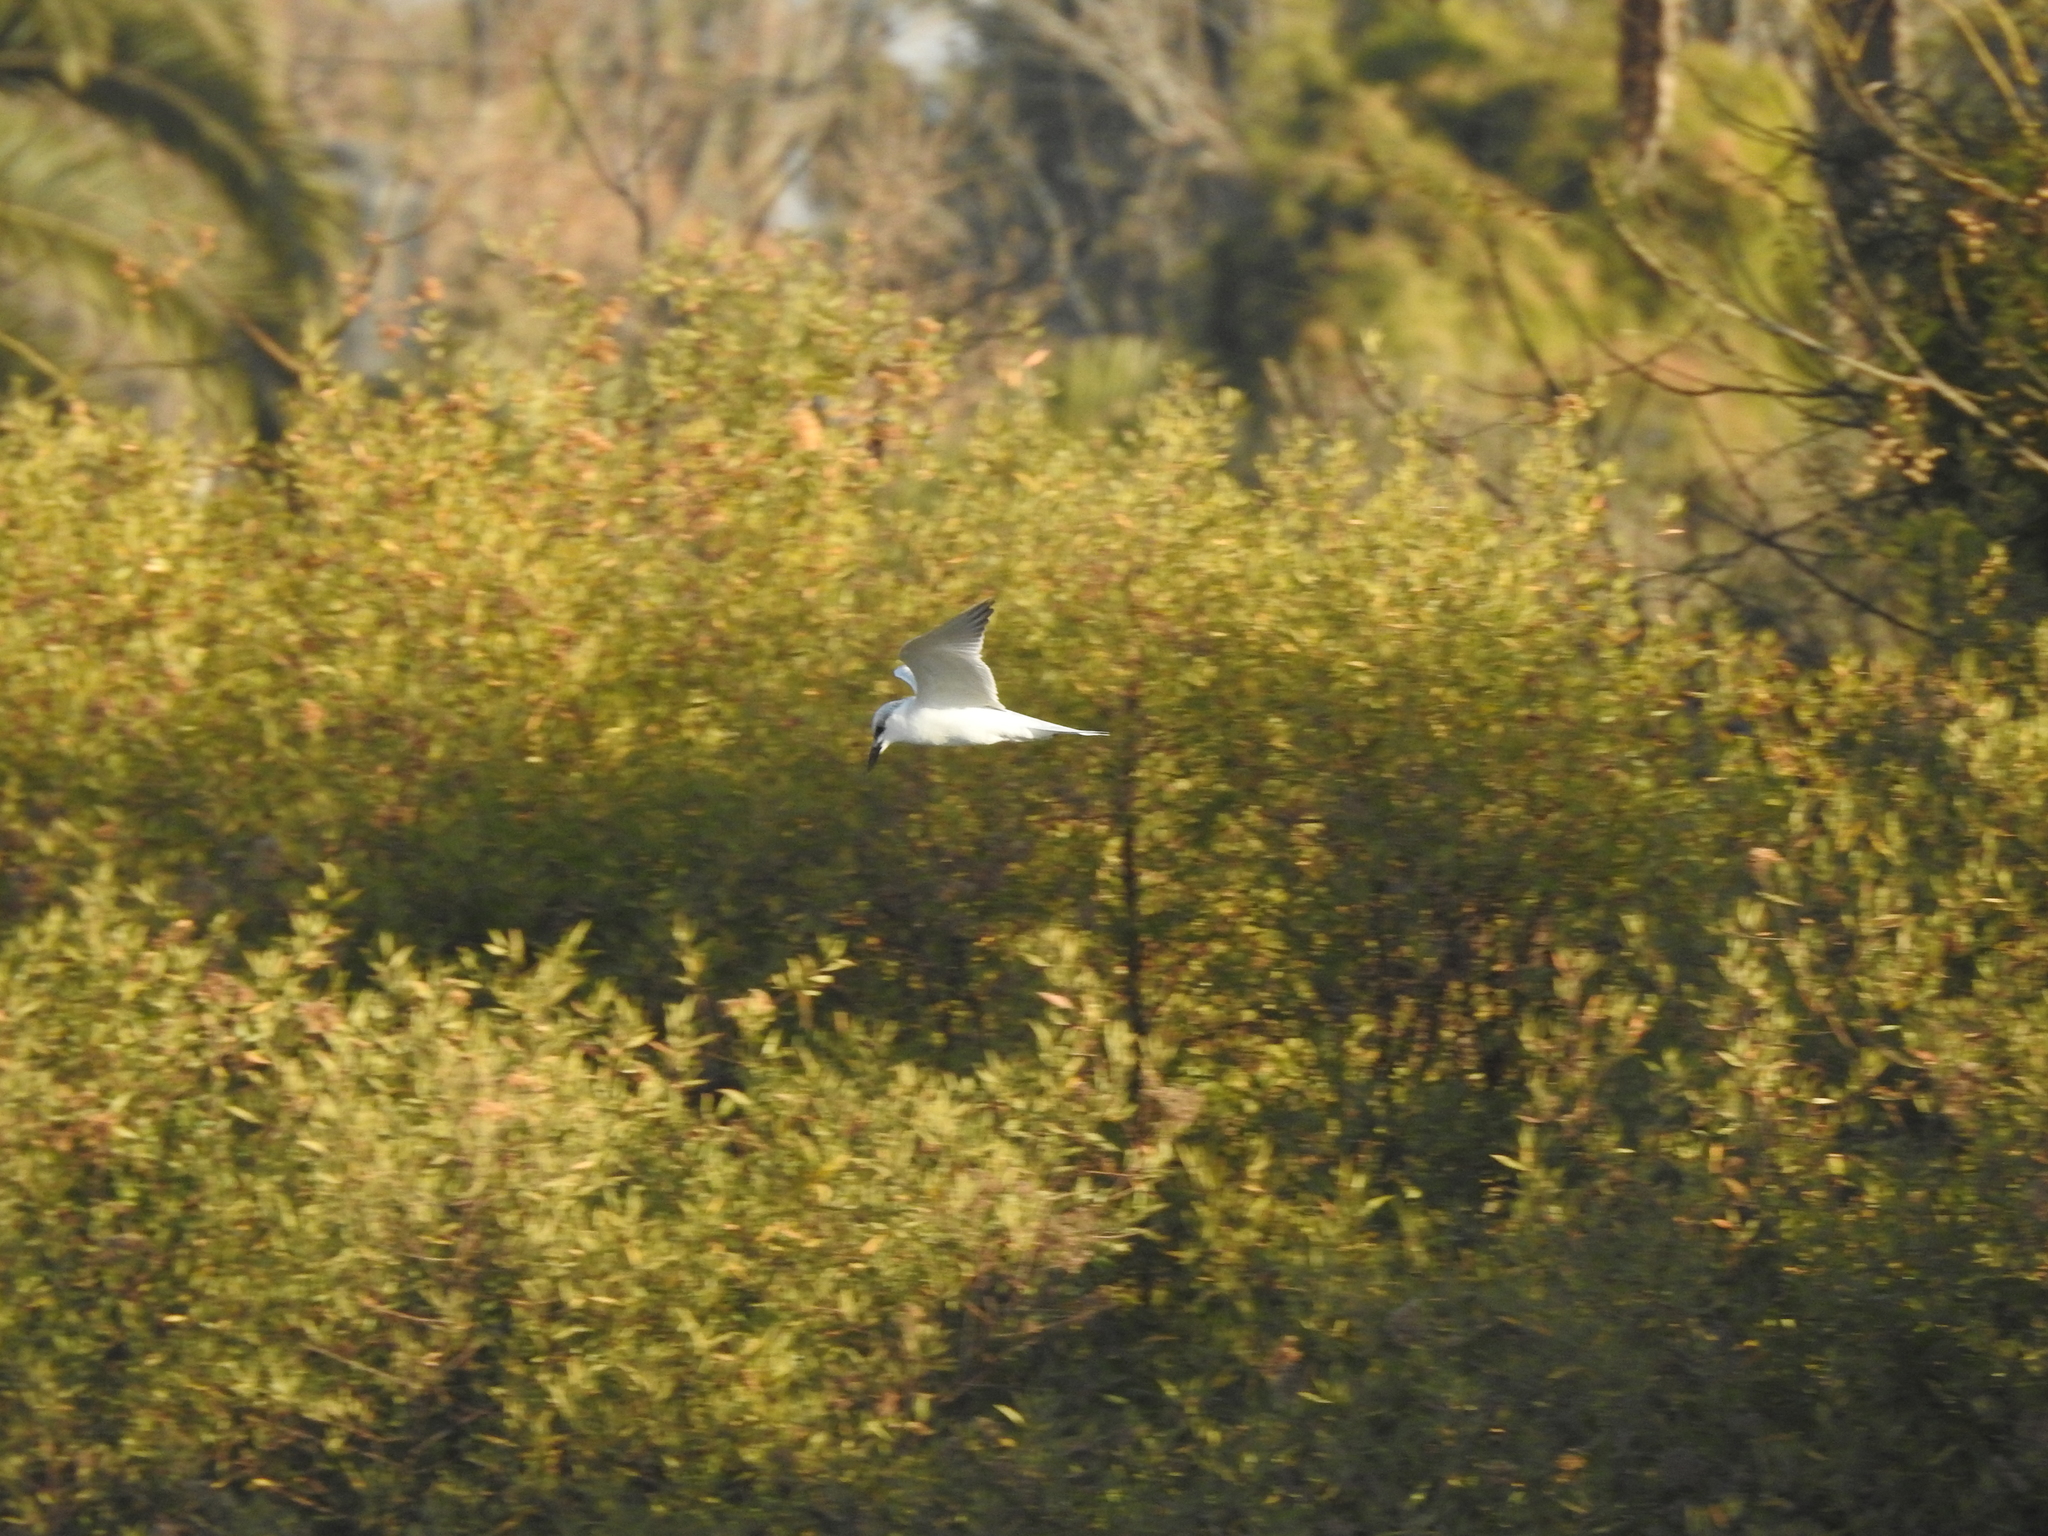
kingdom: Animalia
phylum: Chordata
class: Aves
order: Charadriiformes
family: Laridae
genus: Gelochelidon
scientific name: Gelochelidon nilotica
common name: Gull-billed tern
